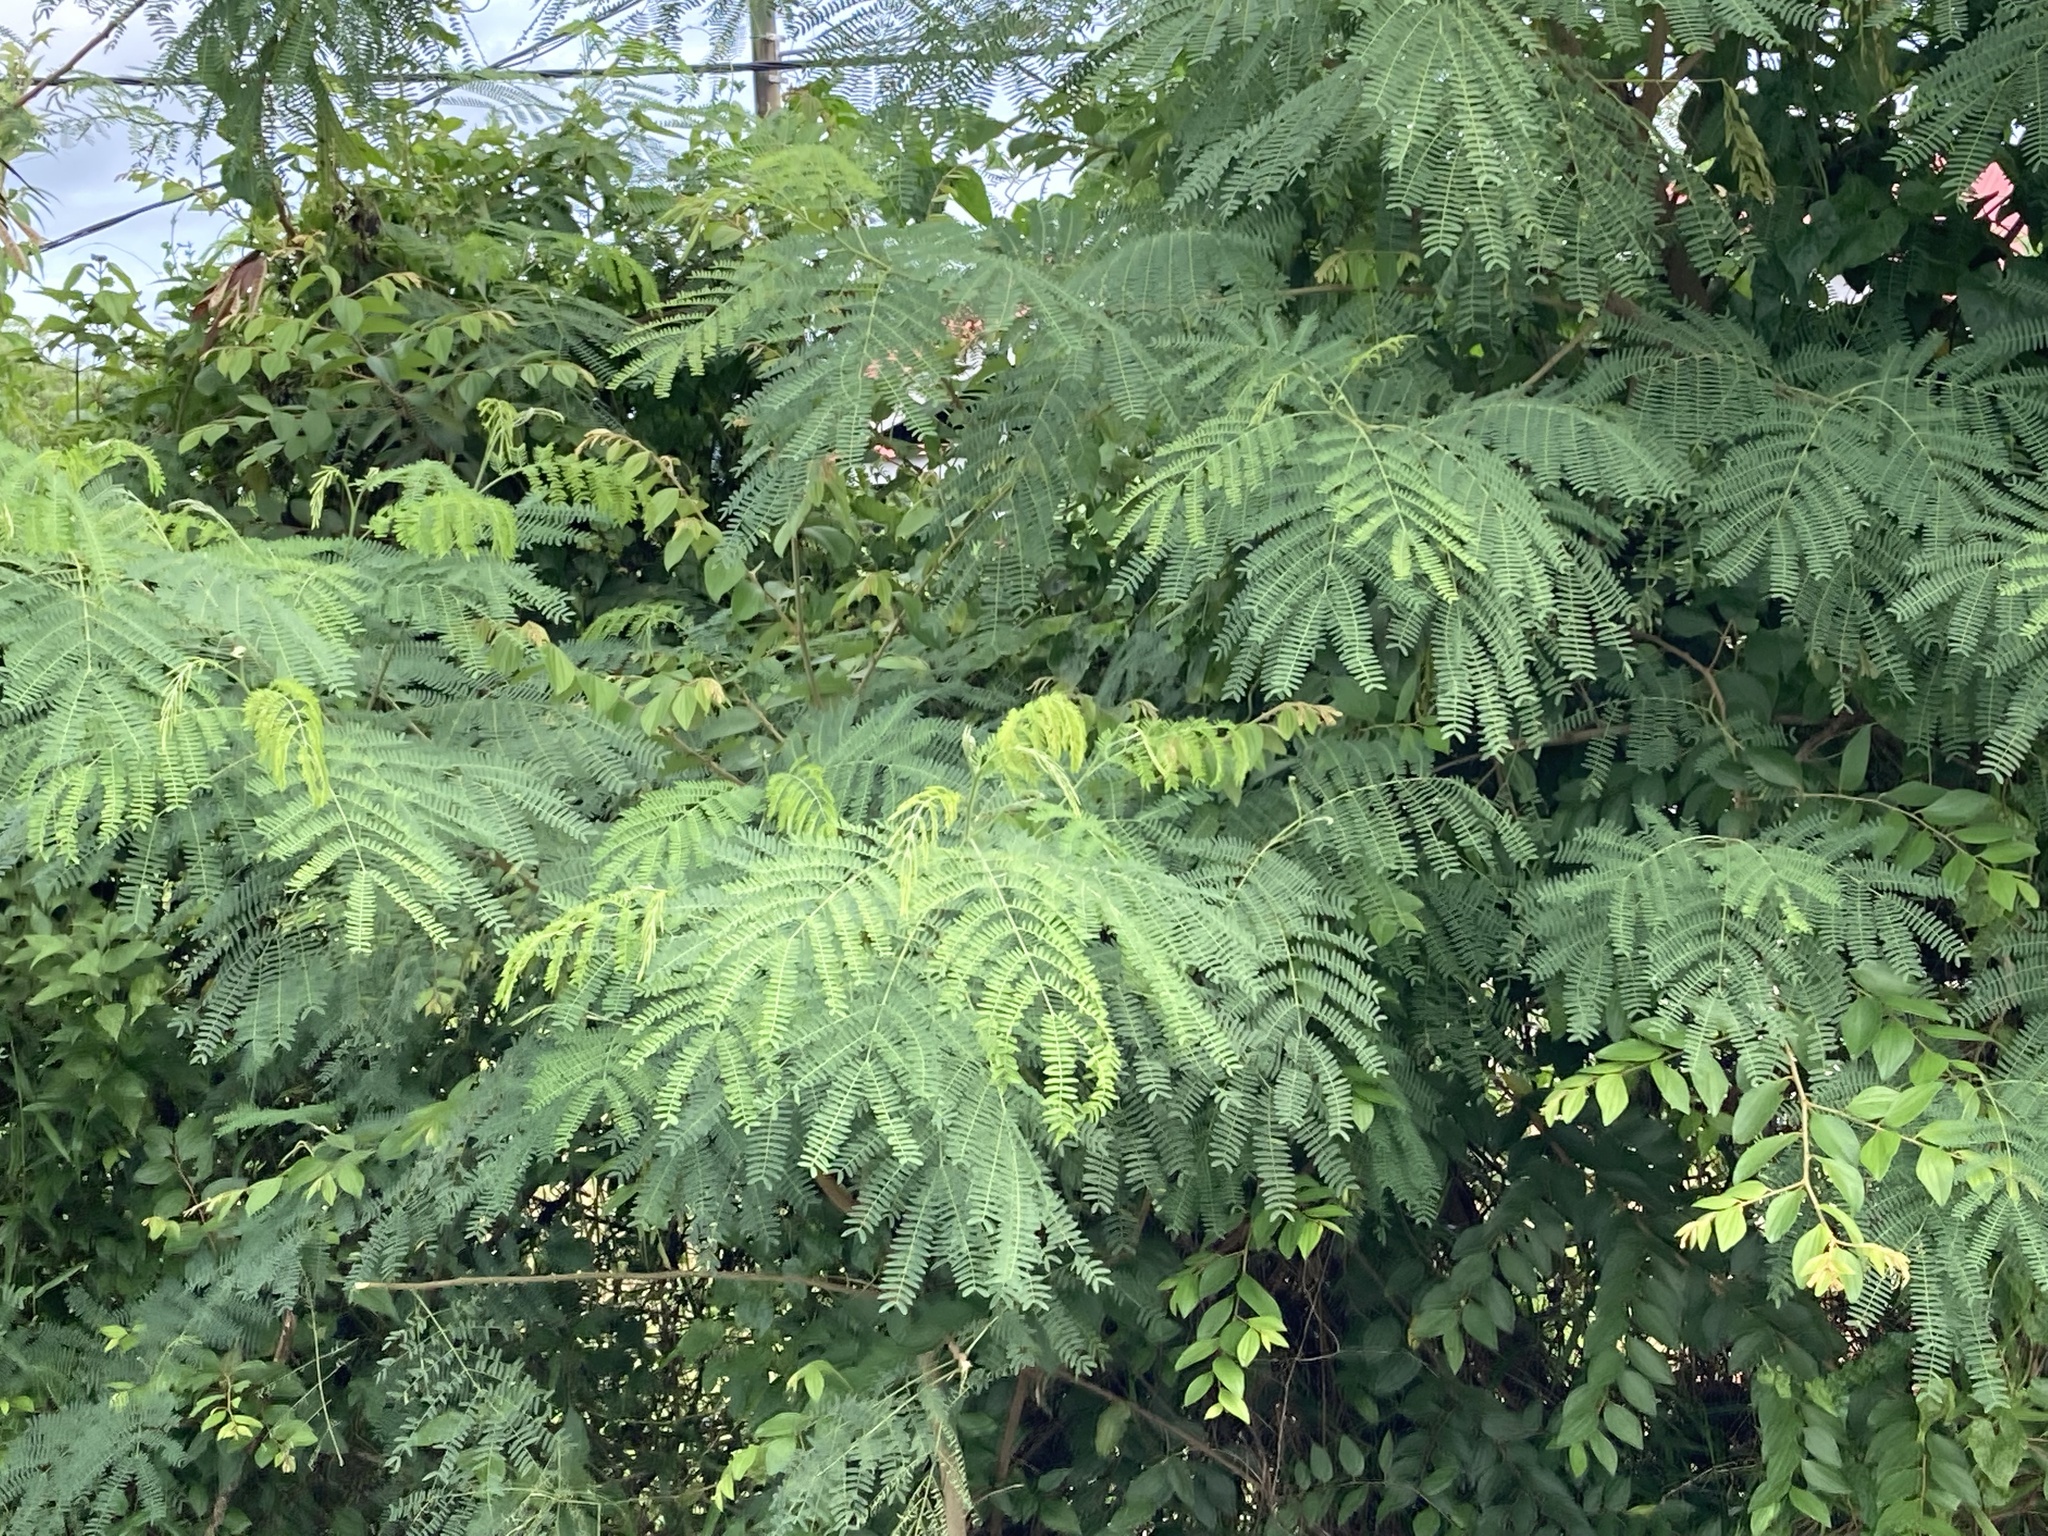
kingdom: Plantae
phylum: Tracheophyta
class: Magnoliopsida
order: Fabales
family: Fabaceae
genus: Leucaena
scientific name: Leucaena leucocephala
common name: White leadtree
